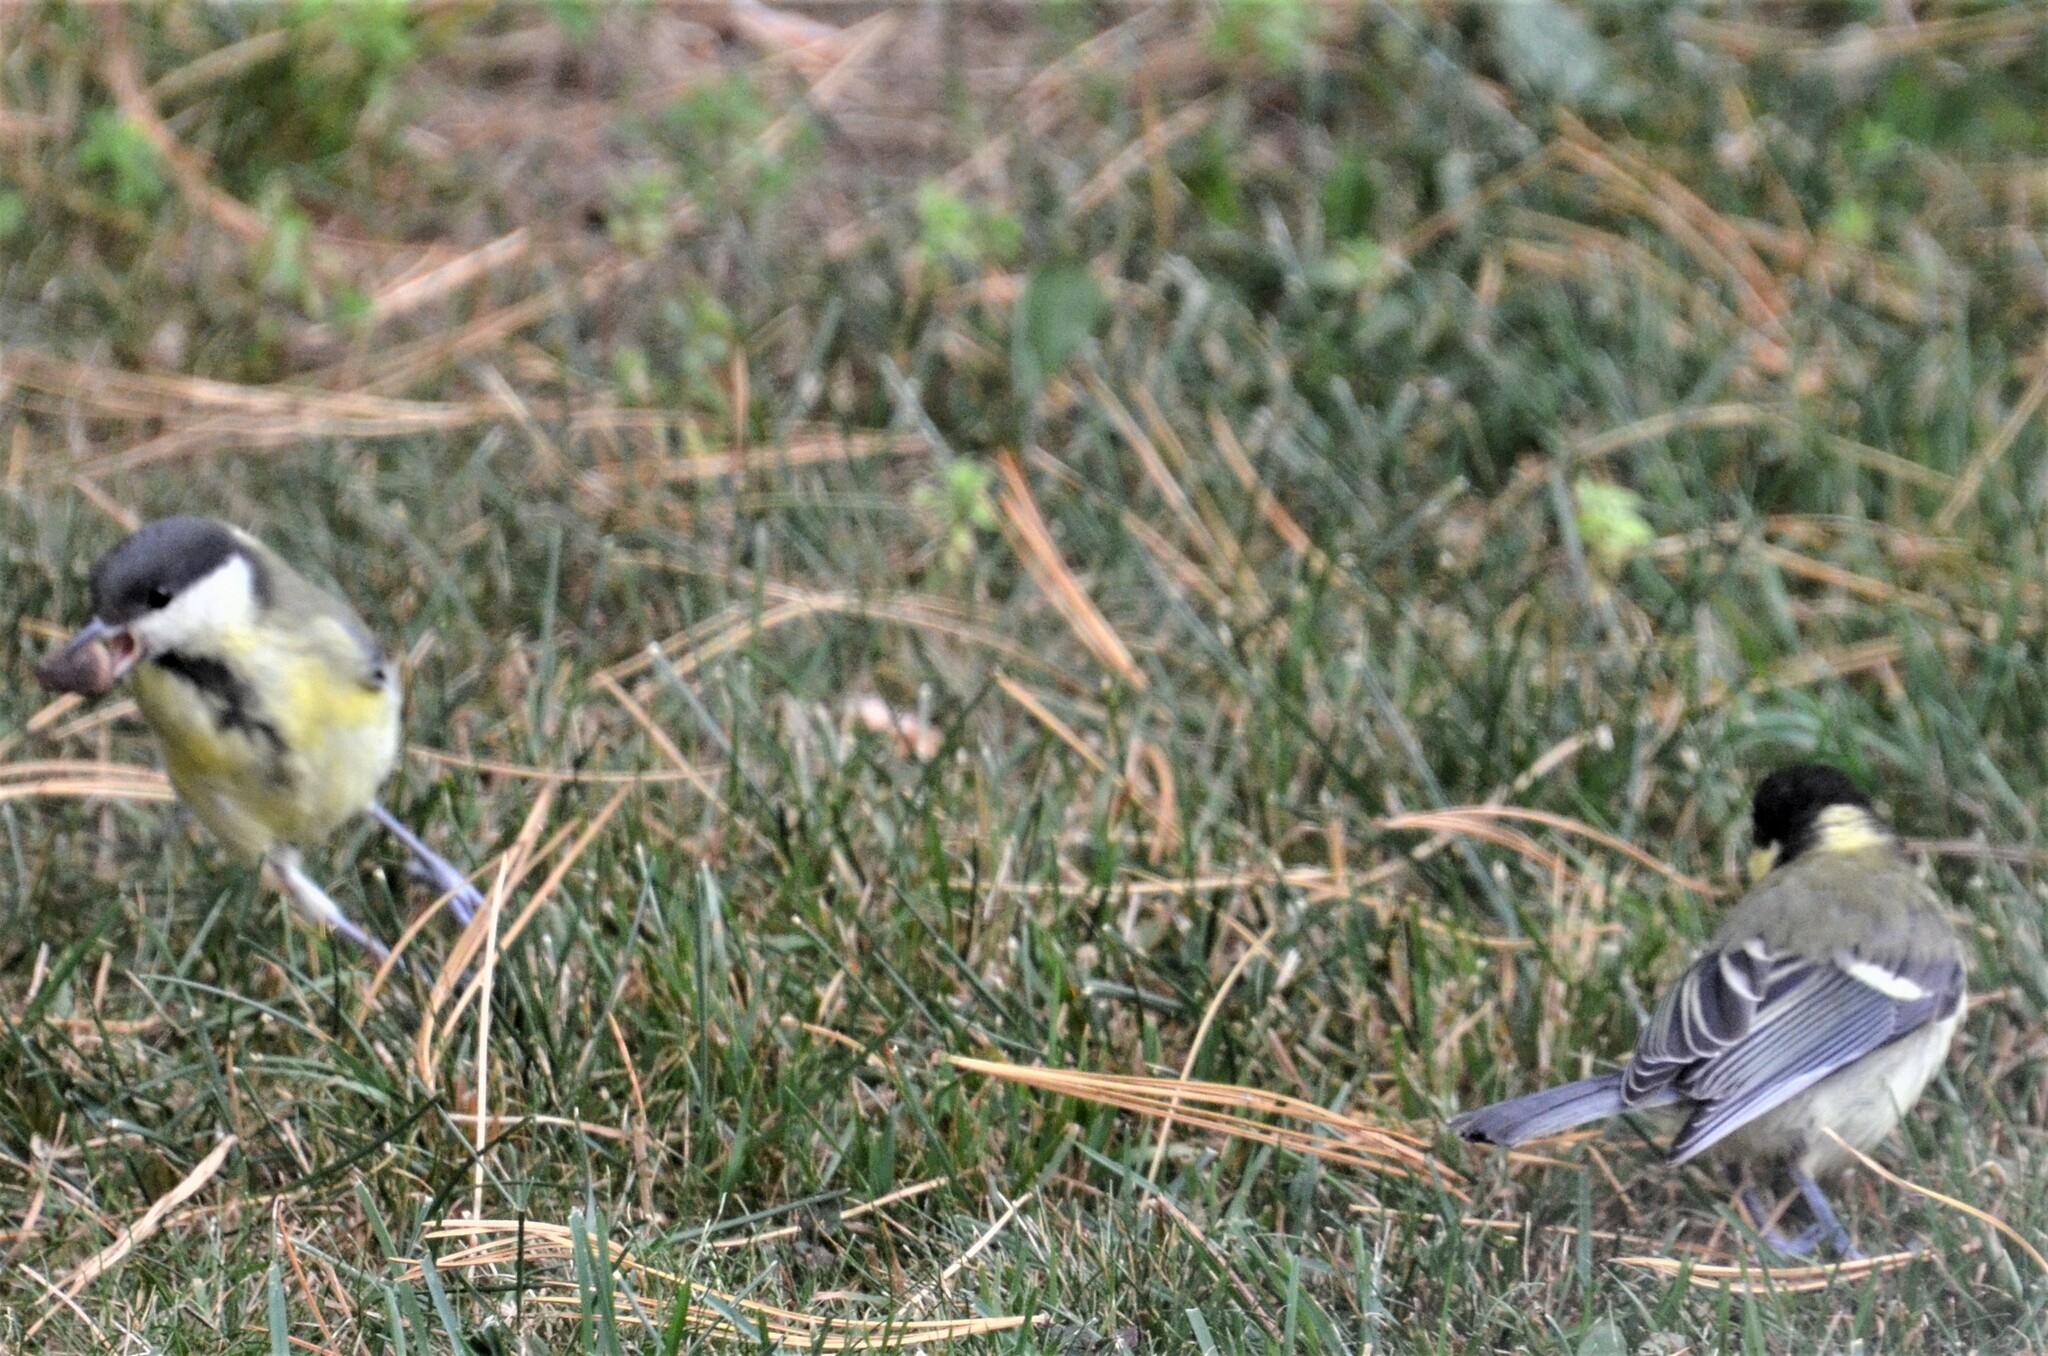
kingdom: Animalia
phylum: Chordata
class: Aves
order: Passeriformes
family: Paridae
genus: Parus
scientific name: Parus major
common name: Great tit
